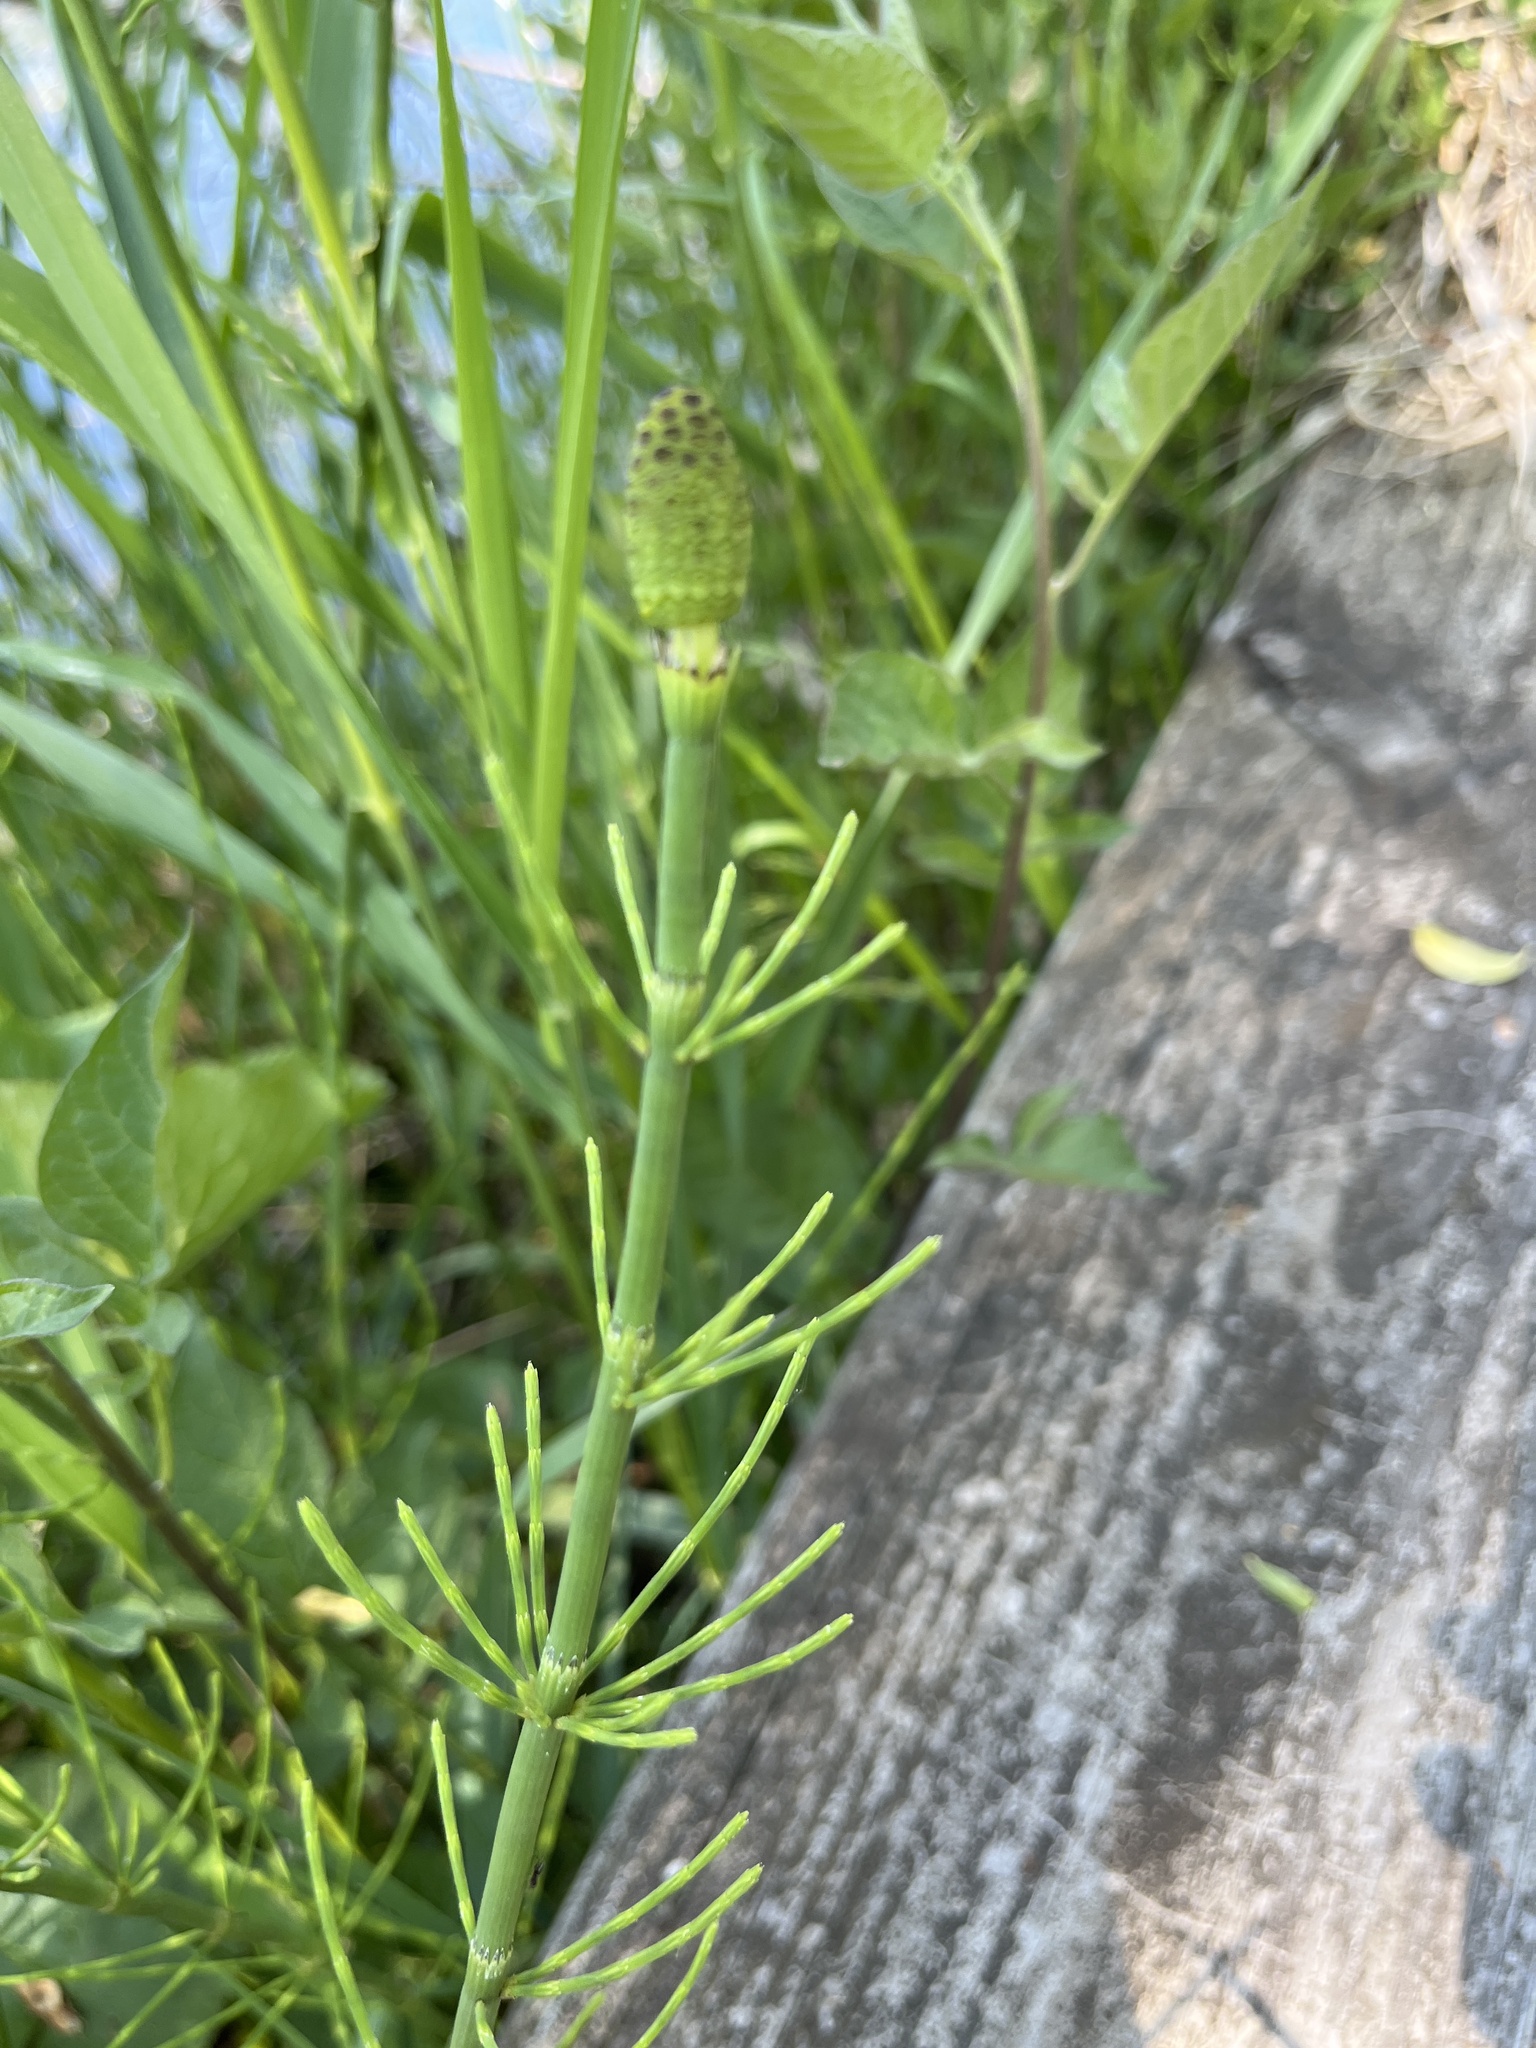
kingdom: Plantae
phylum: Tracheophyta
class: Polypodiopsida
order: Equisetales
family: Equisetaceae
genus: Equisetum
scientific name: Equisetum fluviatile
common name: Water horsetail
